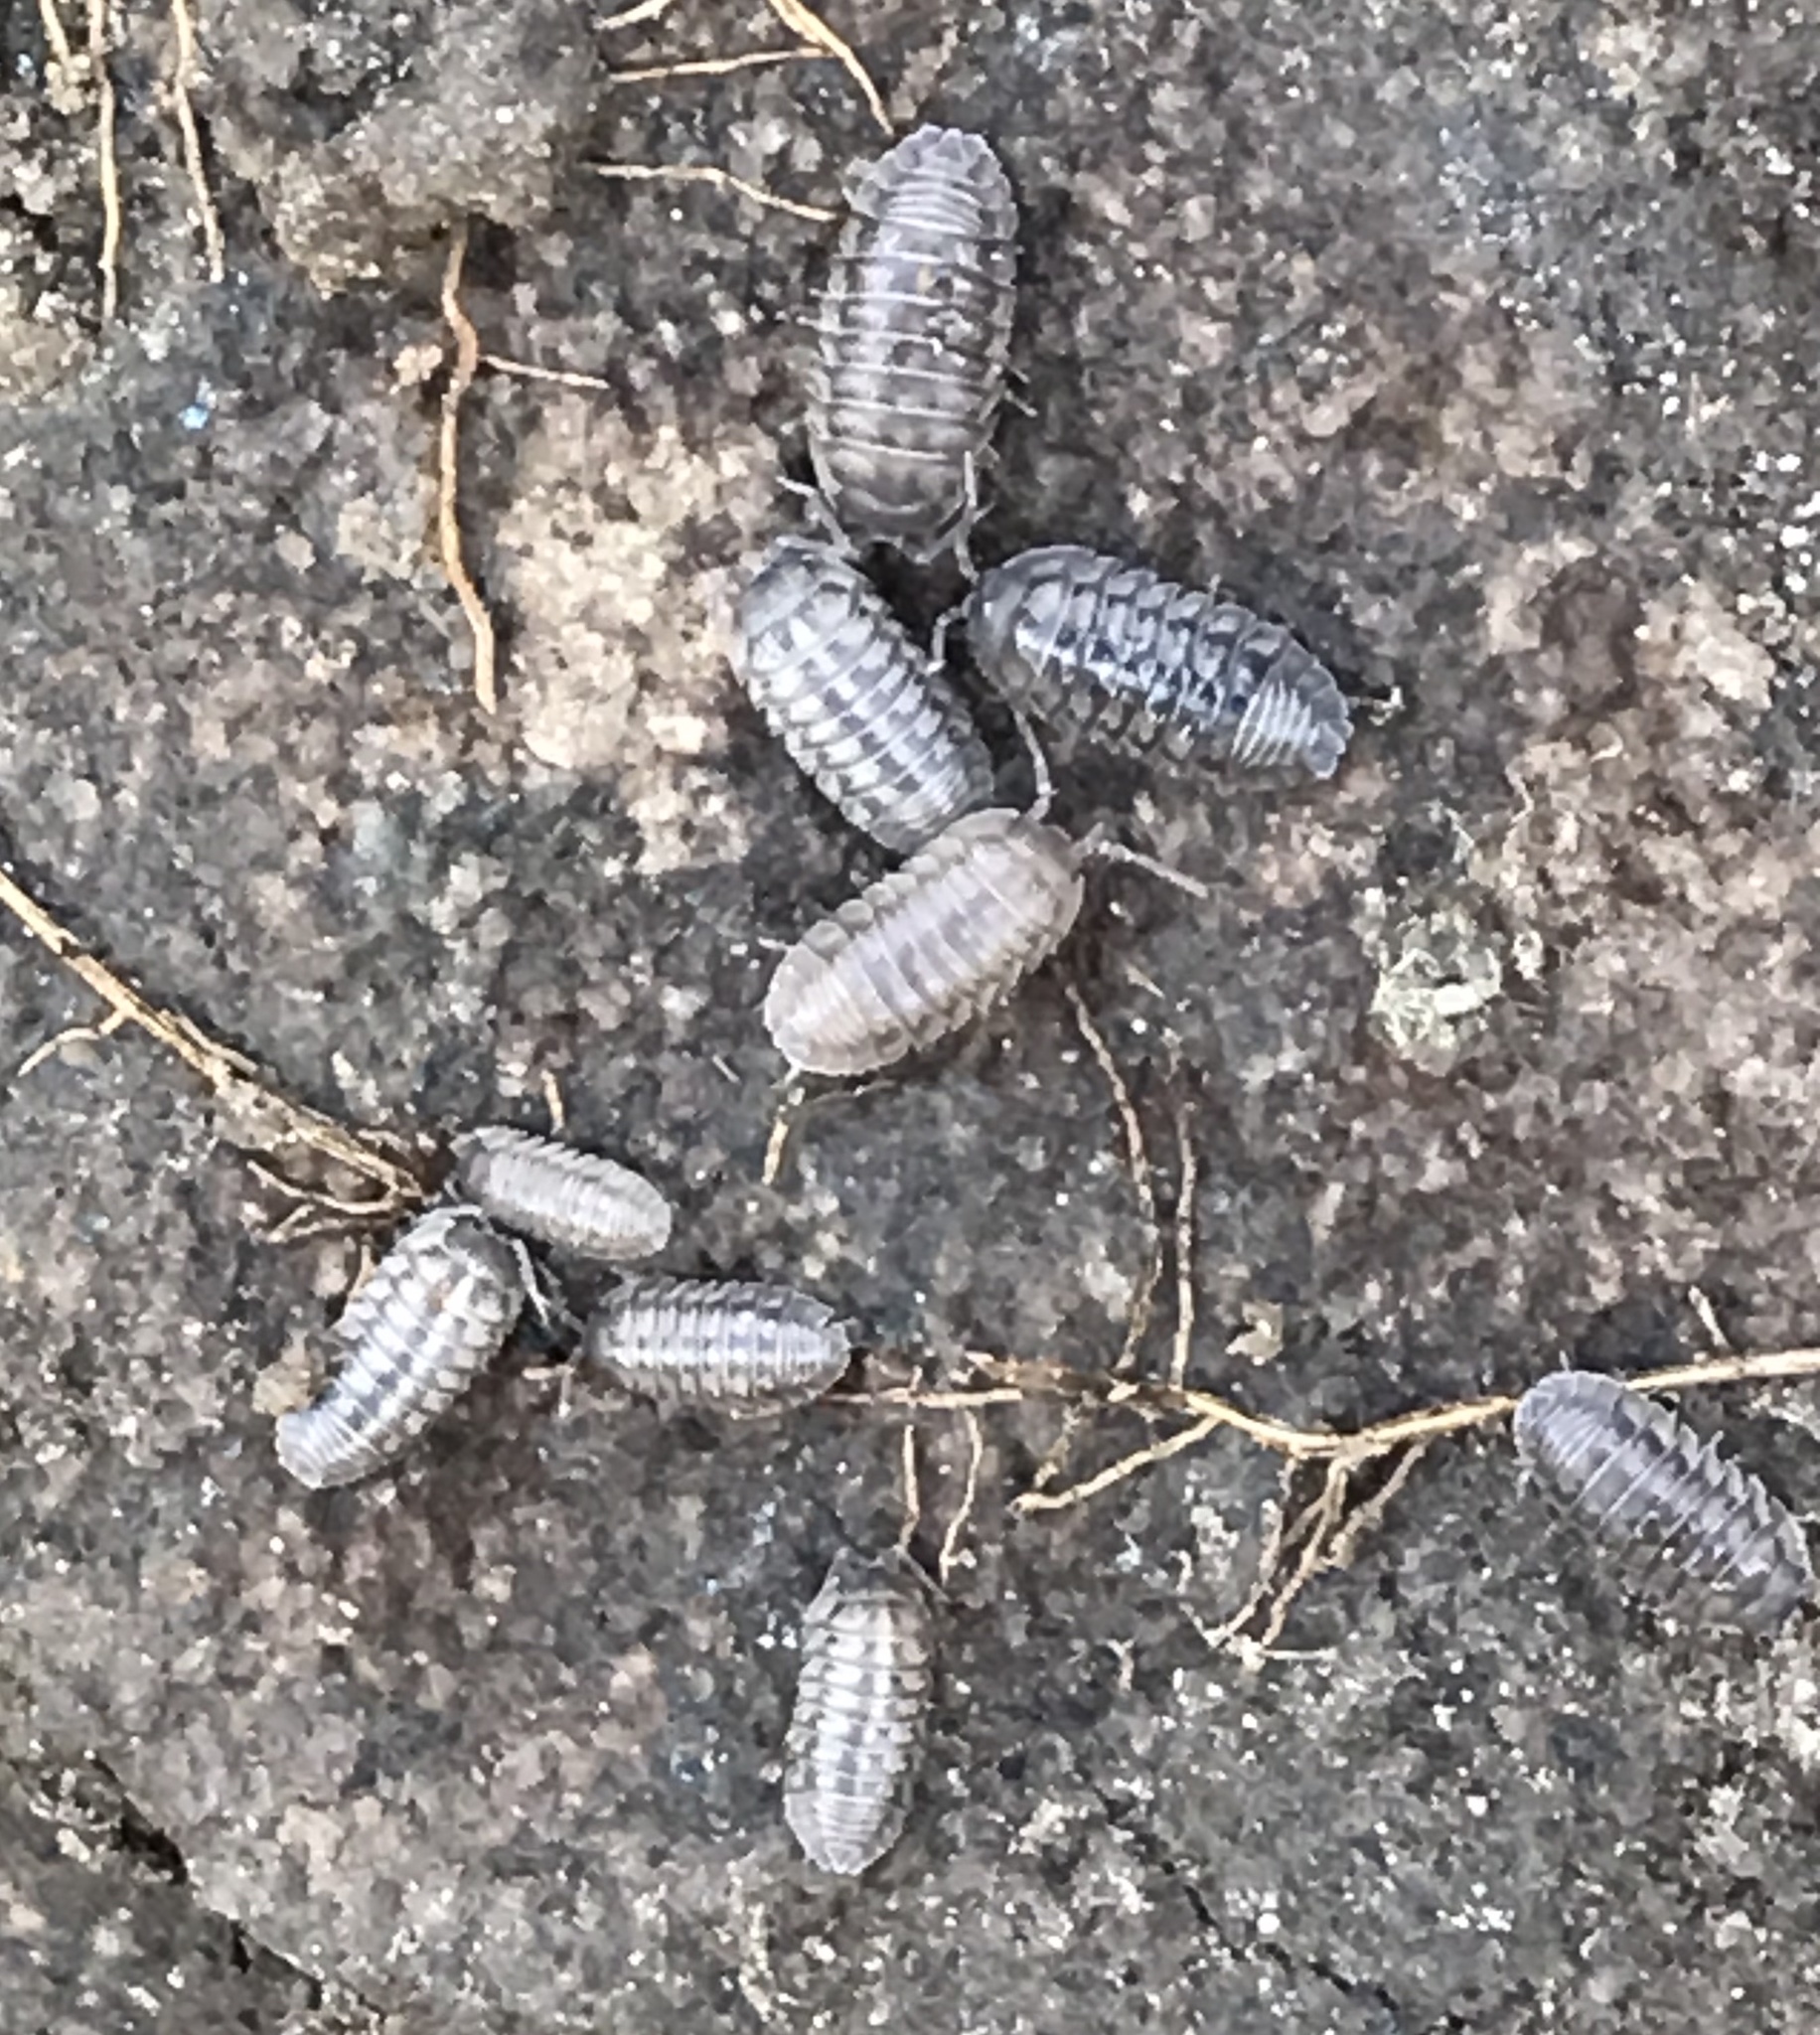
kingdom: Animalia
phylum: Arthropoda
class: Malacostraca
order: Isopoda
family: Armadillidiidae
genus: Armadillidium
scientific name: Armadillidium nasatum
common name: Isopod
